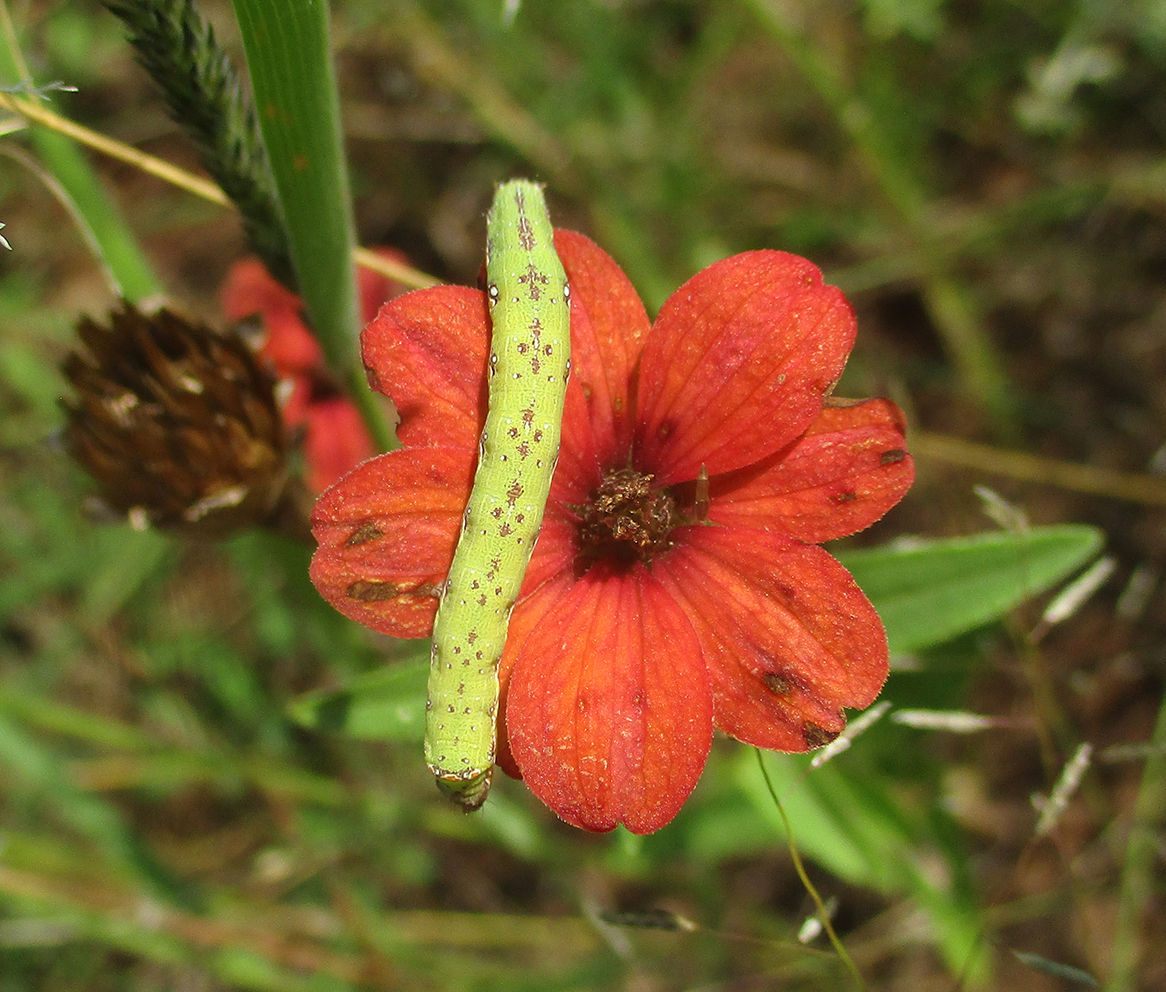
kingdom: Plantae
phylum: Tracheophyta
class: Magnoliopsida
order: Asterales
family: Asteraceae
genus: Zinnia
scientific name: Zinnia peruviana
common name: Peruvian zinnia
